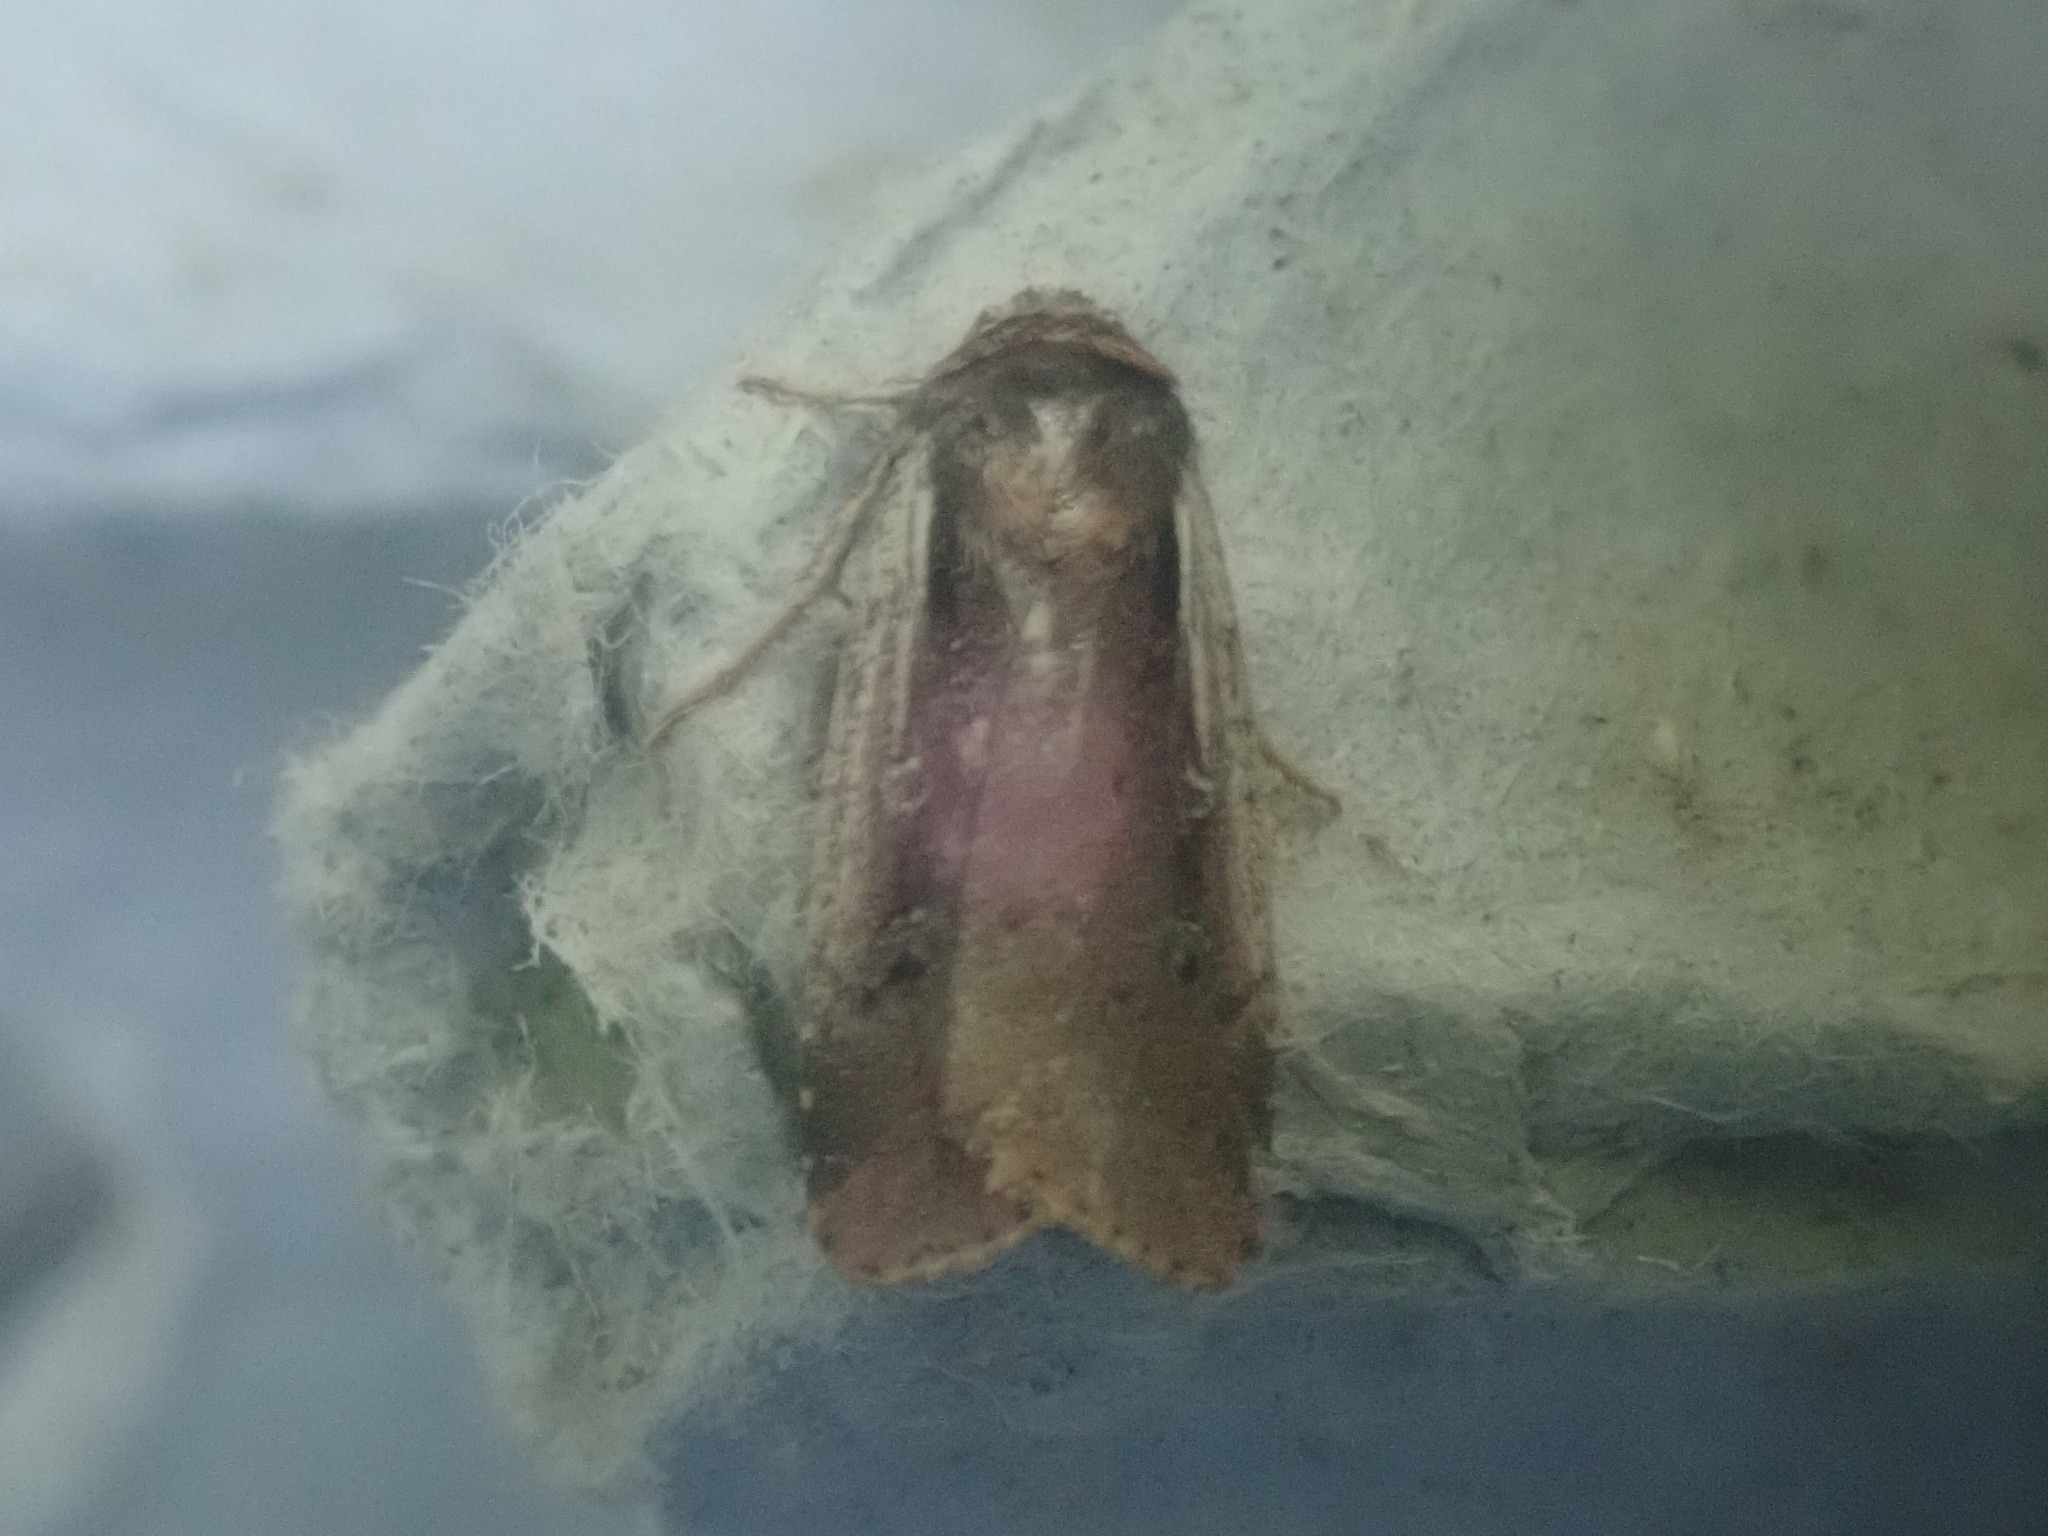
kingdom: Animalia
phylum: Arthropoda
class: Insecta
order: Lepidoptera
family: Noctuidae
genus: Ochropleura
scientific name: Ochropleura implecta
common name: Flame-shouldered dart
